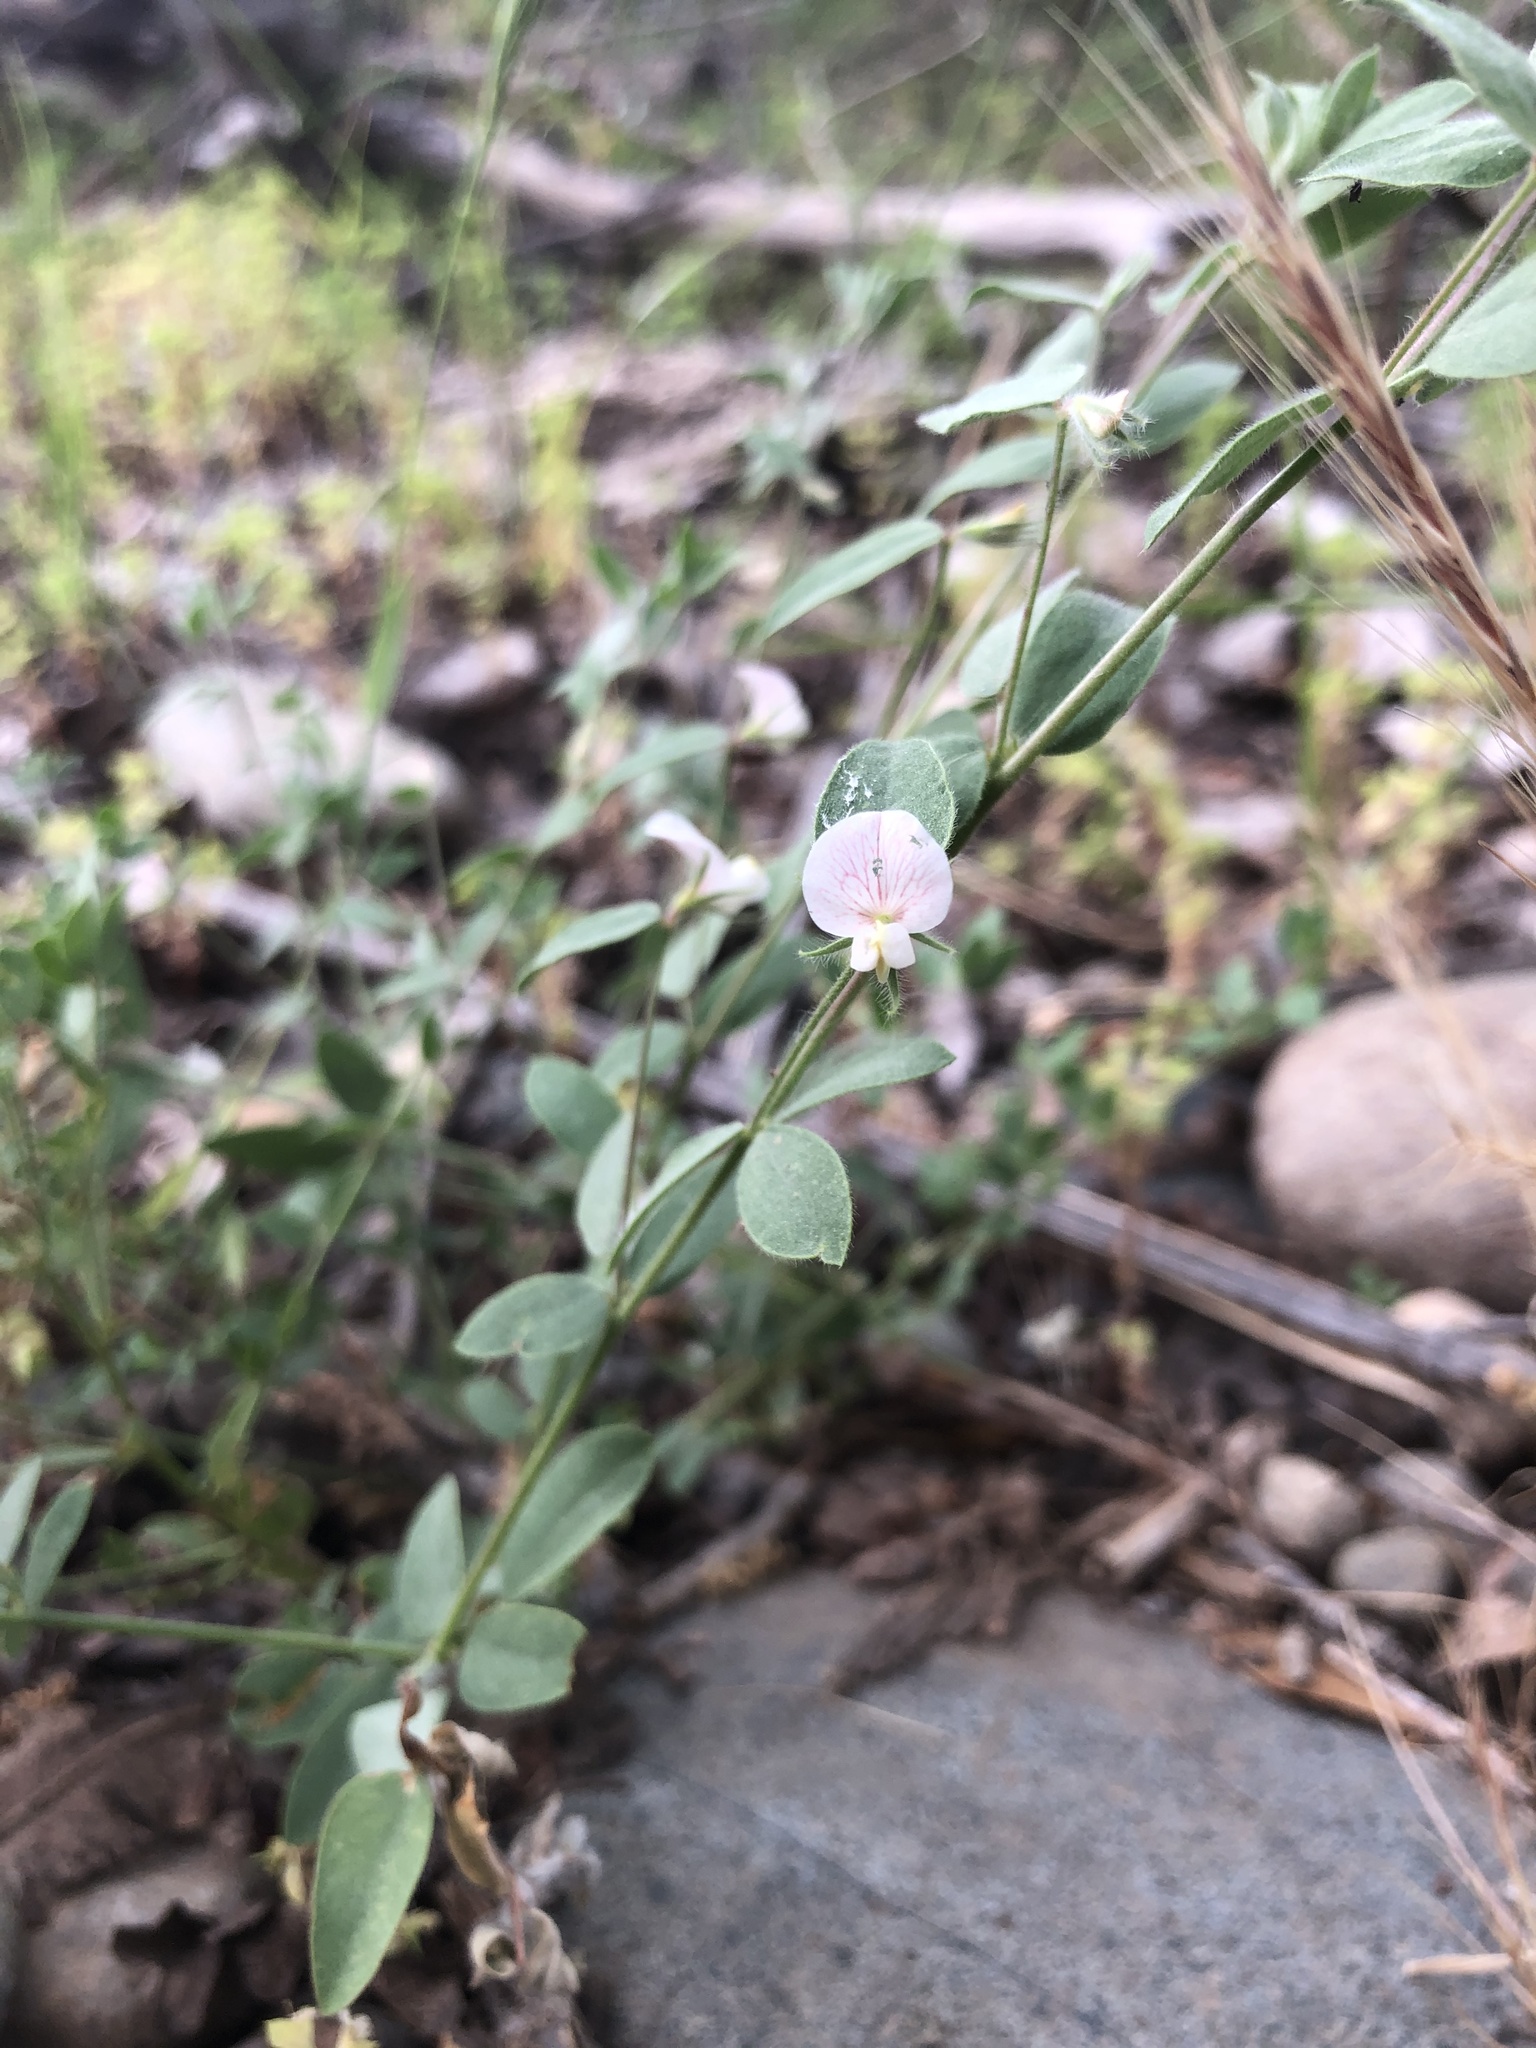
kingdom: Plantae
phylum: Tracheophyta
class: Magnoliopsida
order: Fabales
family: Fabaceae
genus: Acmispon
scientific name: Acmispon americanus
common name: American bird's-foot trefoil
